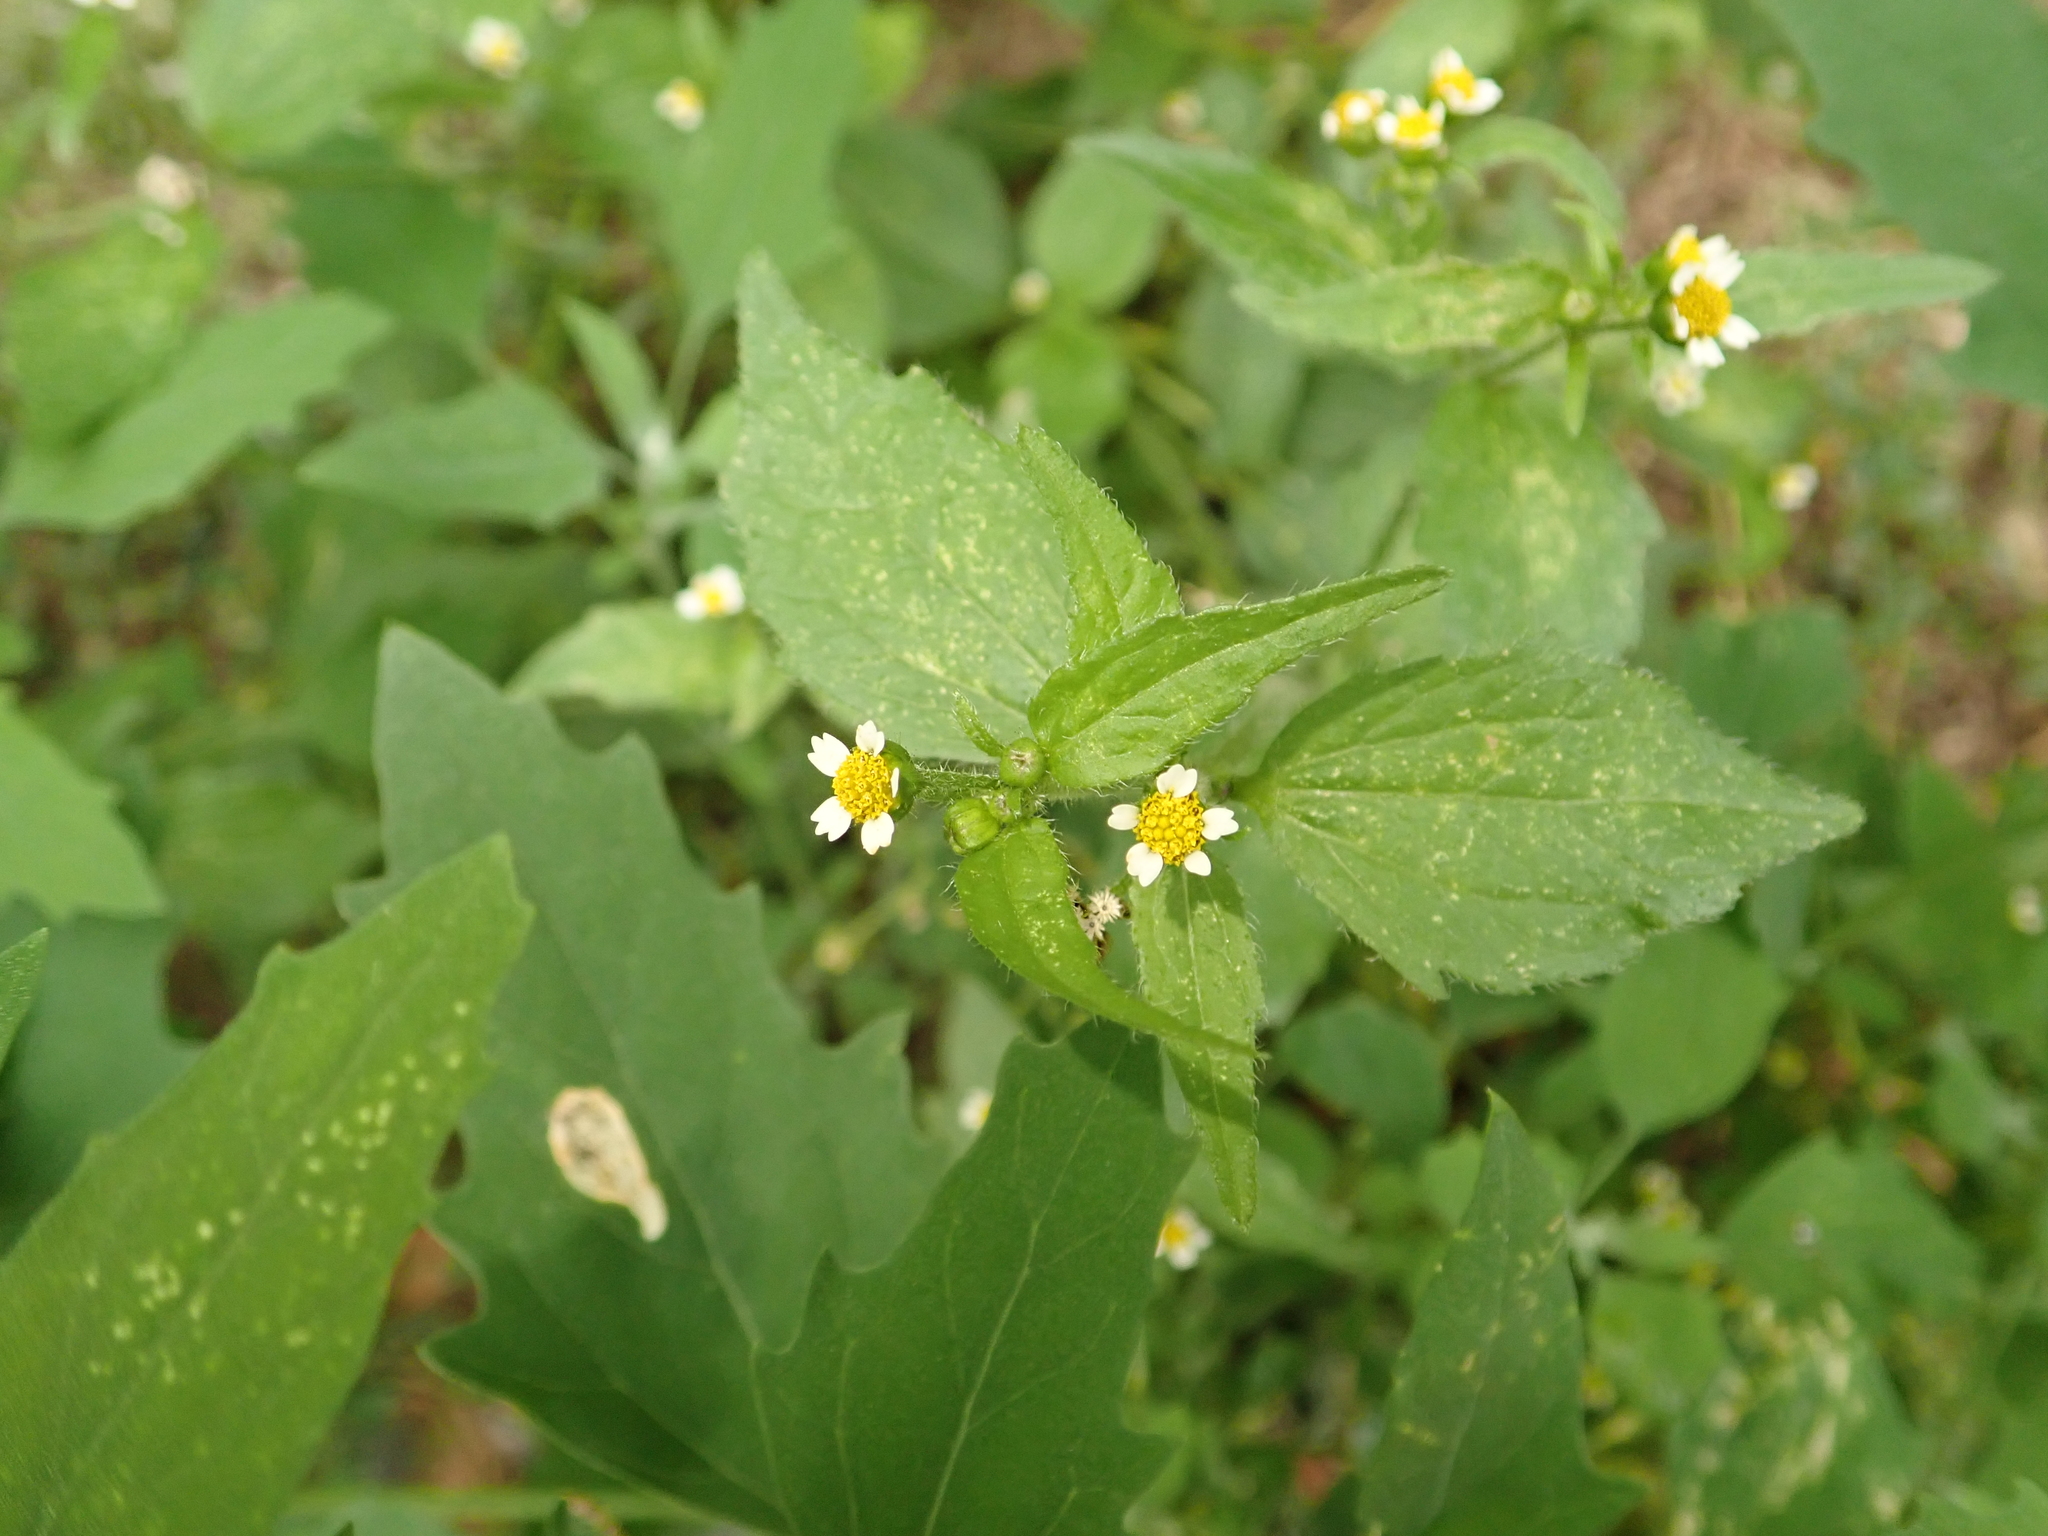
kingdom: Plantae
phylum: Tracheophyta
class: Magnoliopsida
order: Asterales
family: Asteraceae
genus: Galinsoga
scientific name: Galinsoga quadriradiata
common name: Shaggy soldier
